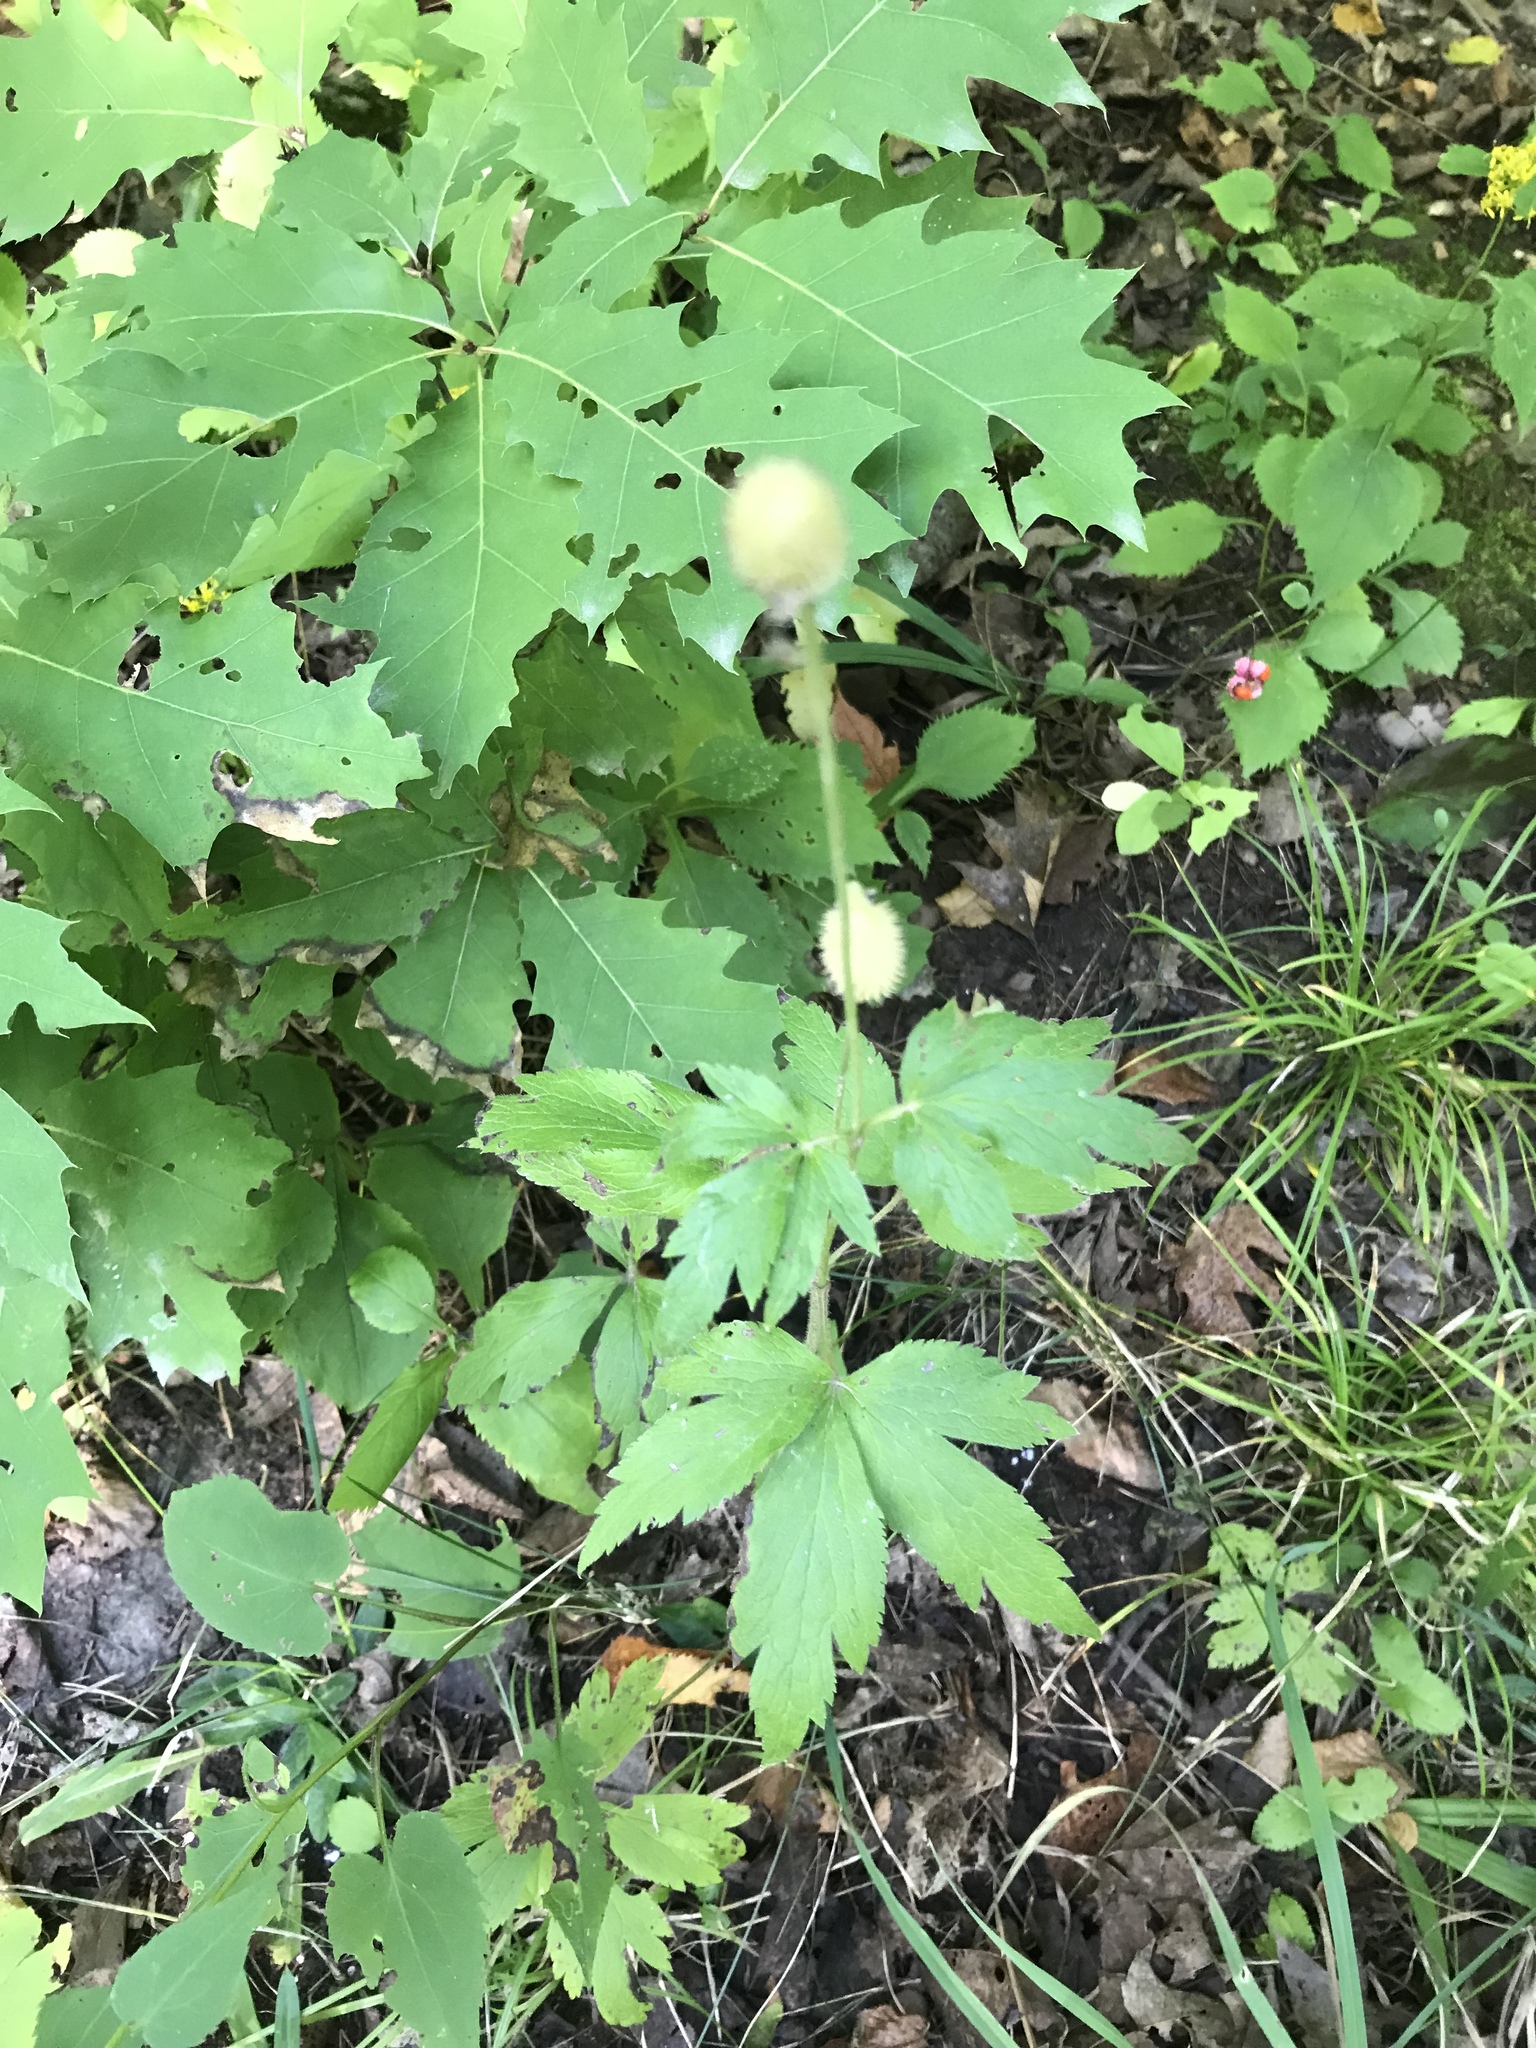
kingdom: Plantae
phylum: Tracheophyta
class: Magnoliopsida
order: Ranunculales
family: Ranunculaceae
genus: Anemone
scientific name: Anemone virginiana
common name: Tall anemone
